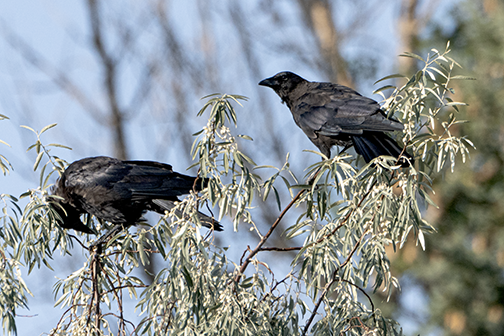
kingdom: Animalia
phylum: Chordata
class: Aves
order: Passeriformes
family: Corvidae
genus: Corvus
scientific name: Corvus brachyrhynchos
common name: American crow
